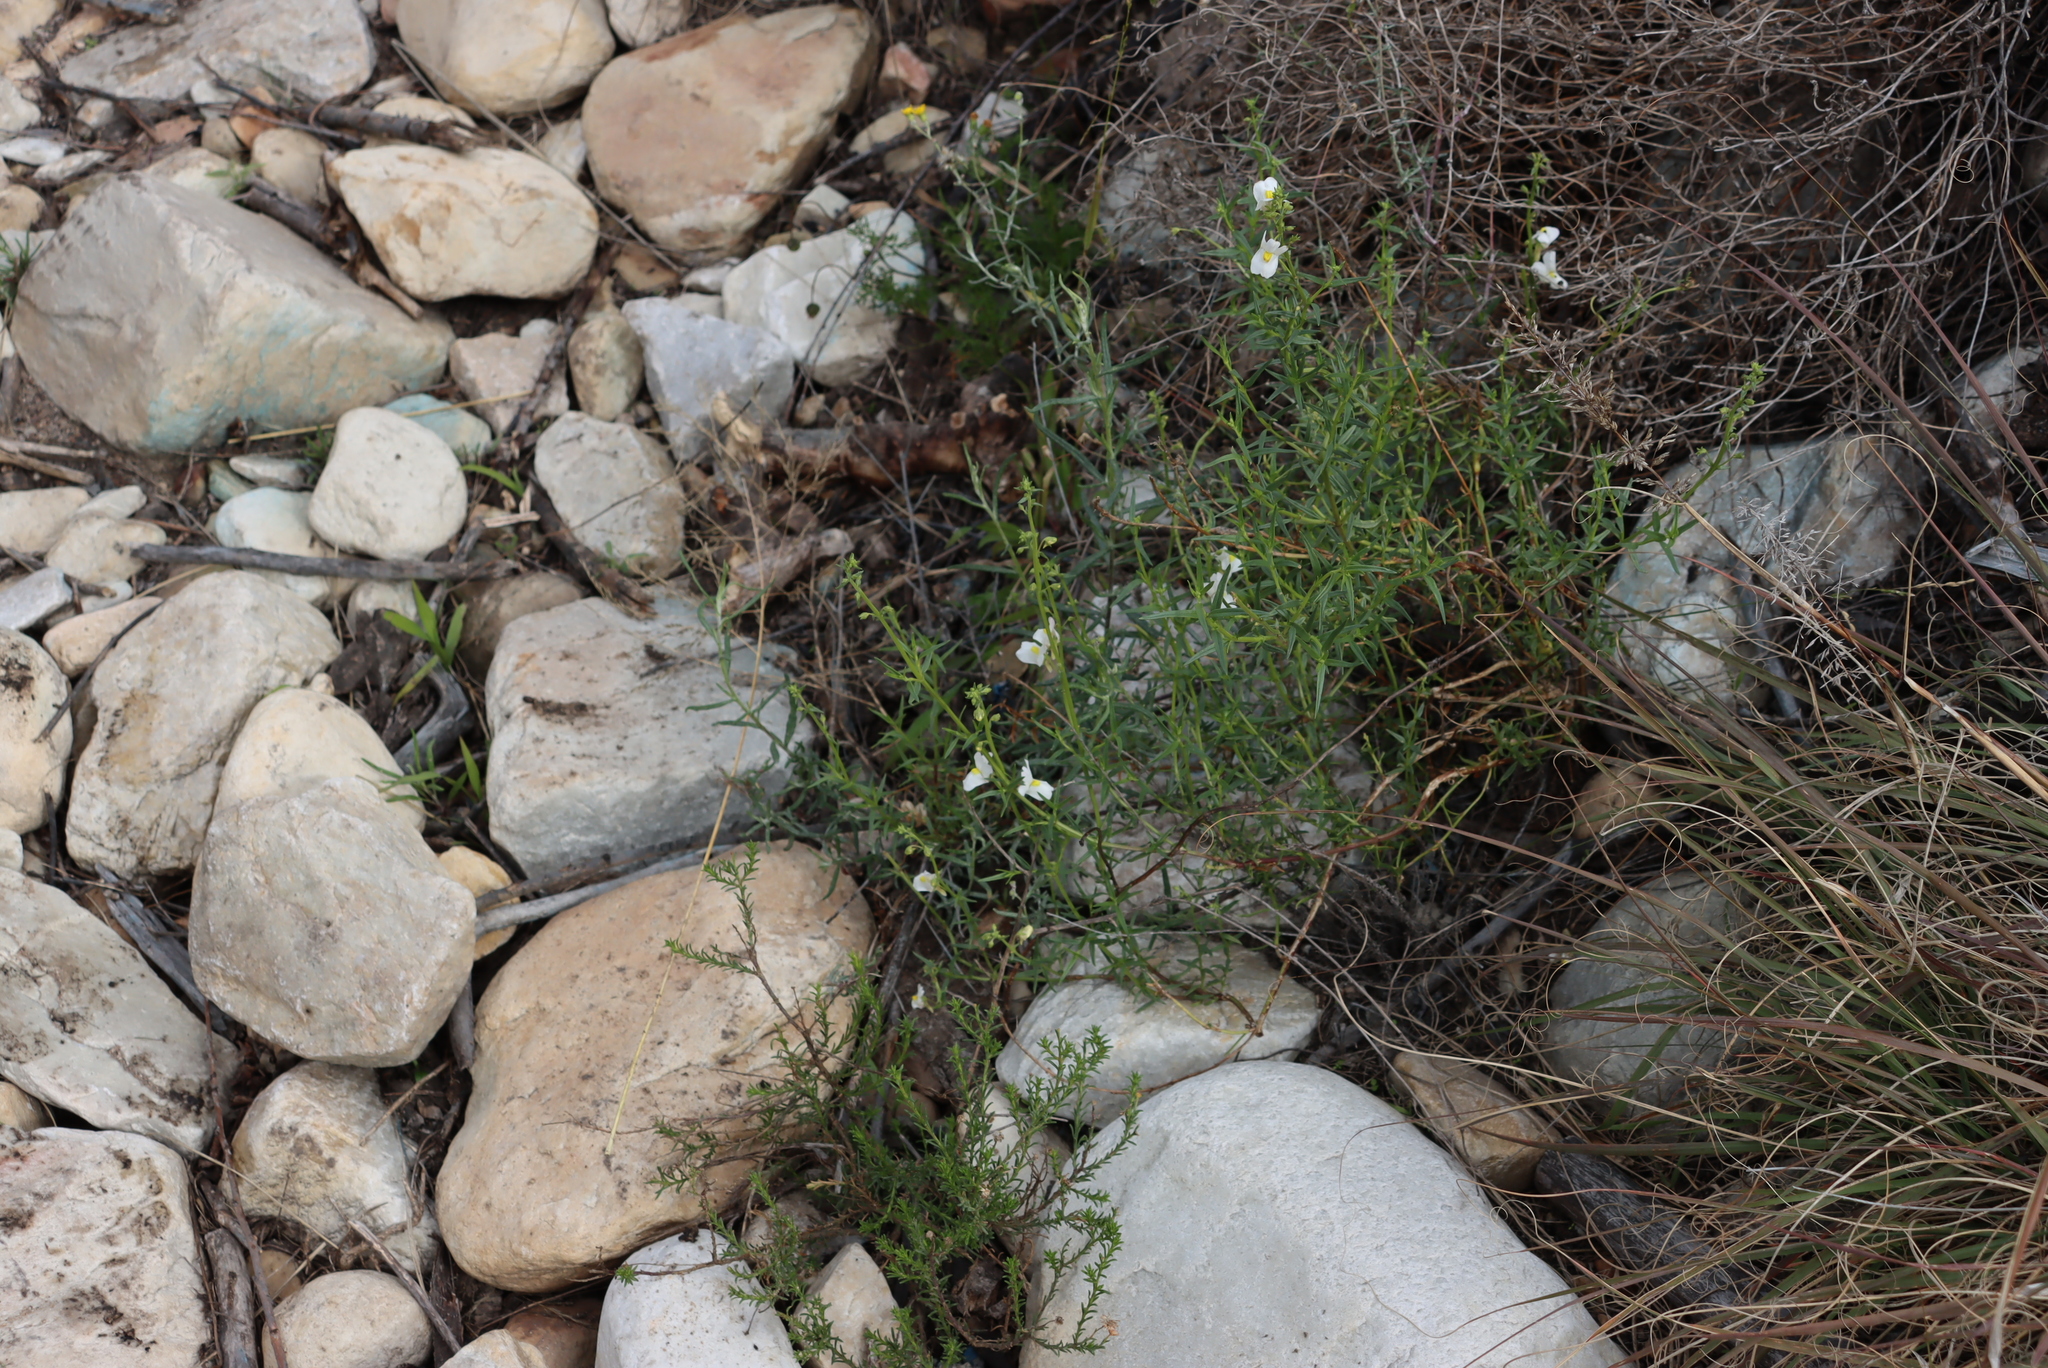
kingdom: Plantae
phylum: Tracheophyta
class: Magnoliopsida
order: Lamiales
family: Scrophulariaceae
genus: Nemesia
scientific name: Nemesia fruticans
